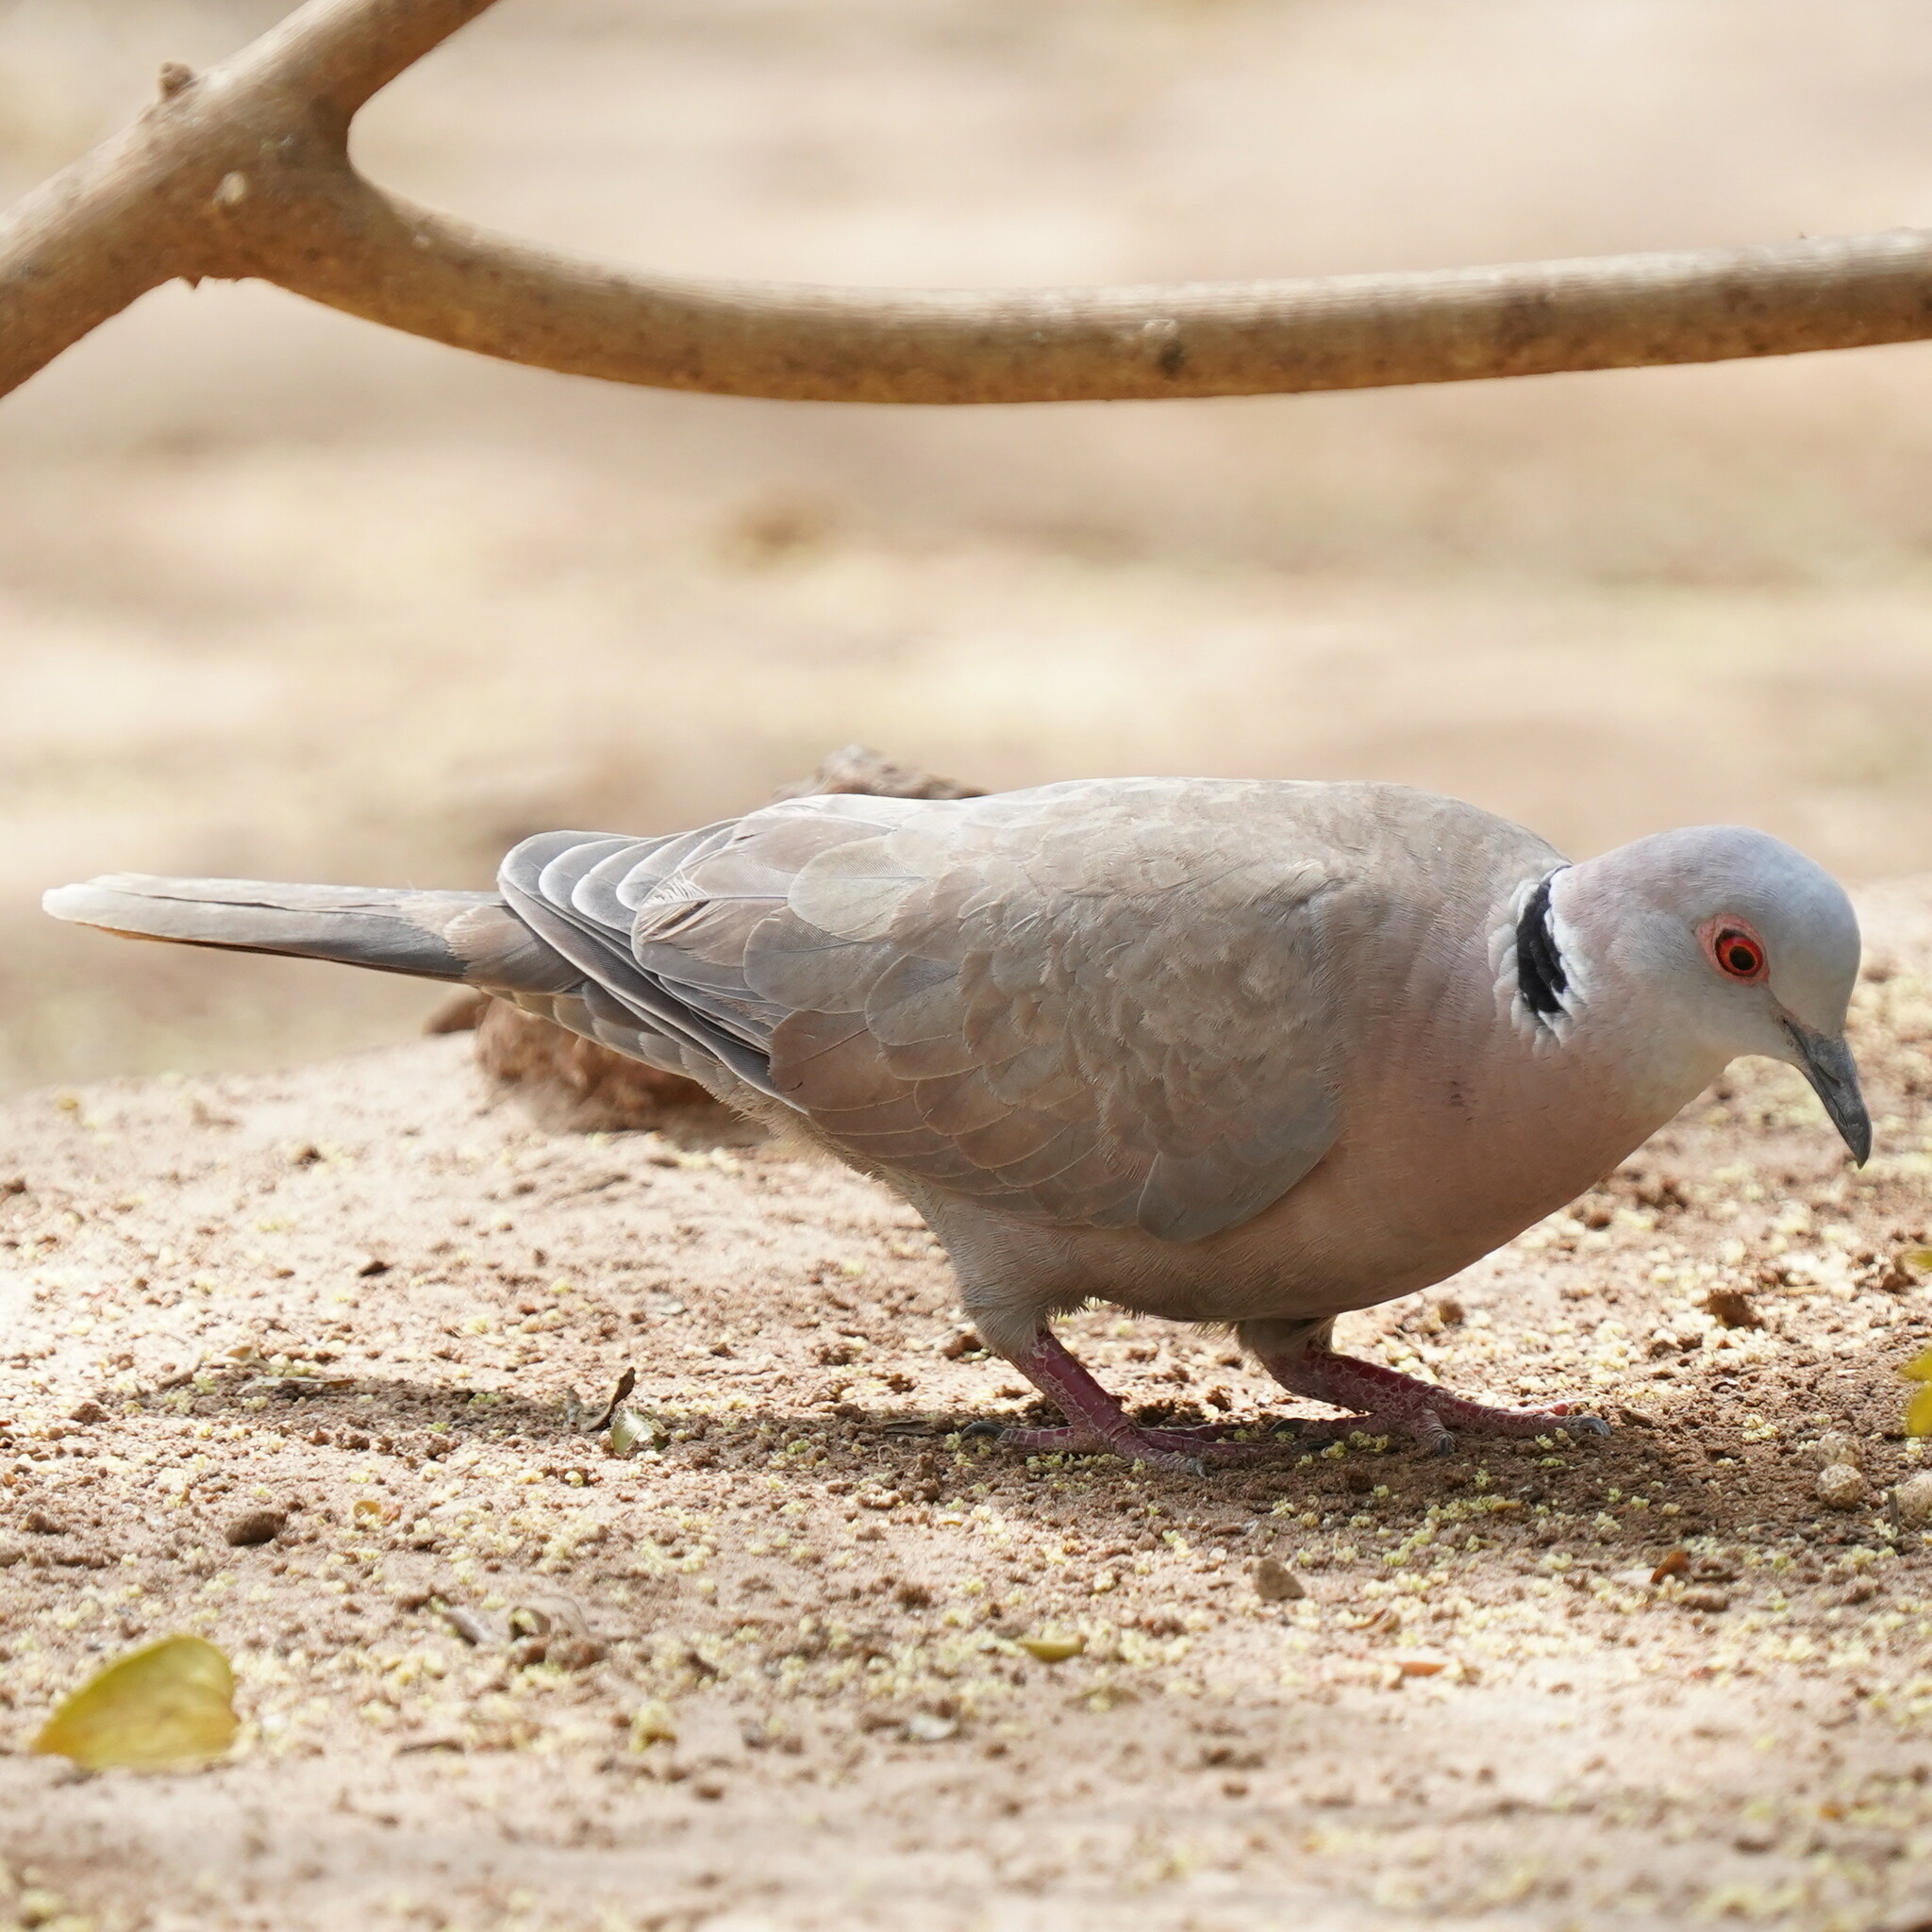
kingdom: Animalia
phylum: Chordata
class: Aves
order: Columbiformes
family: Columbidae
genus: Streptopelia
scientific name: Streptopelia decipiens
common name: Mourning collared dove
